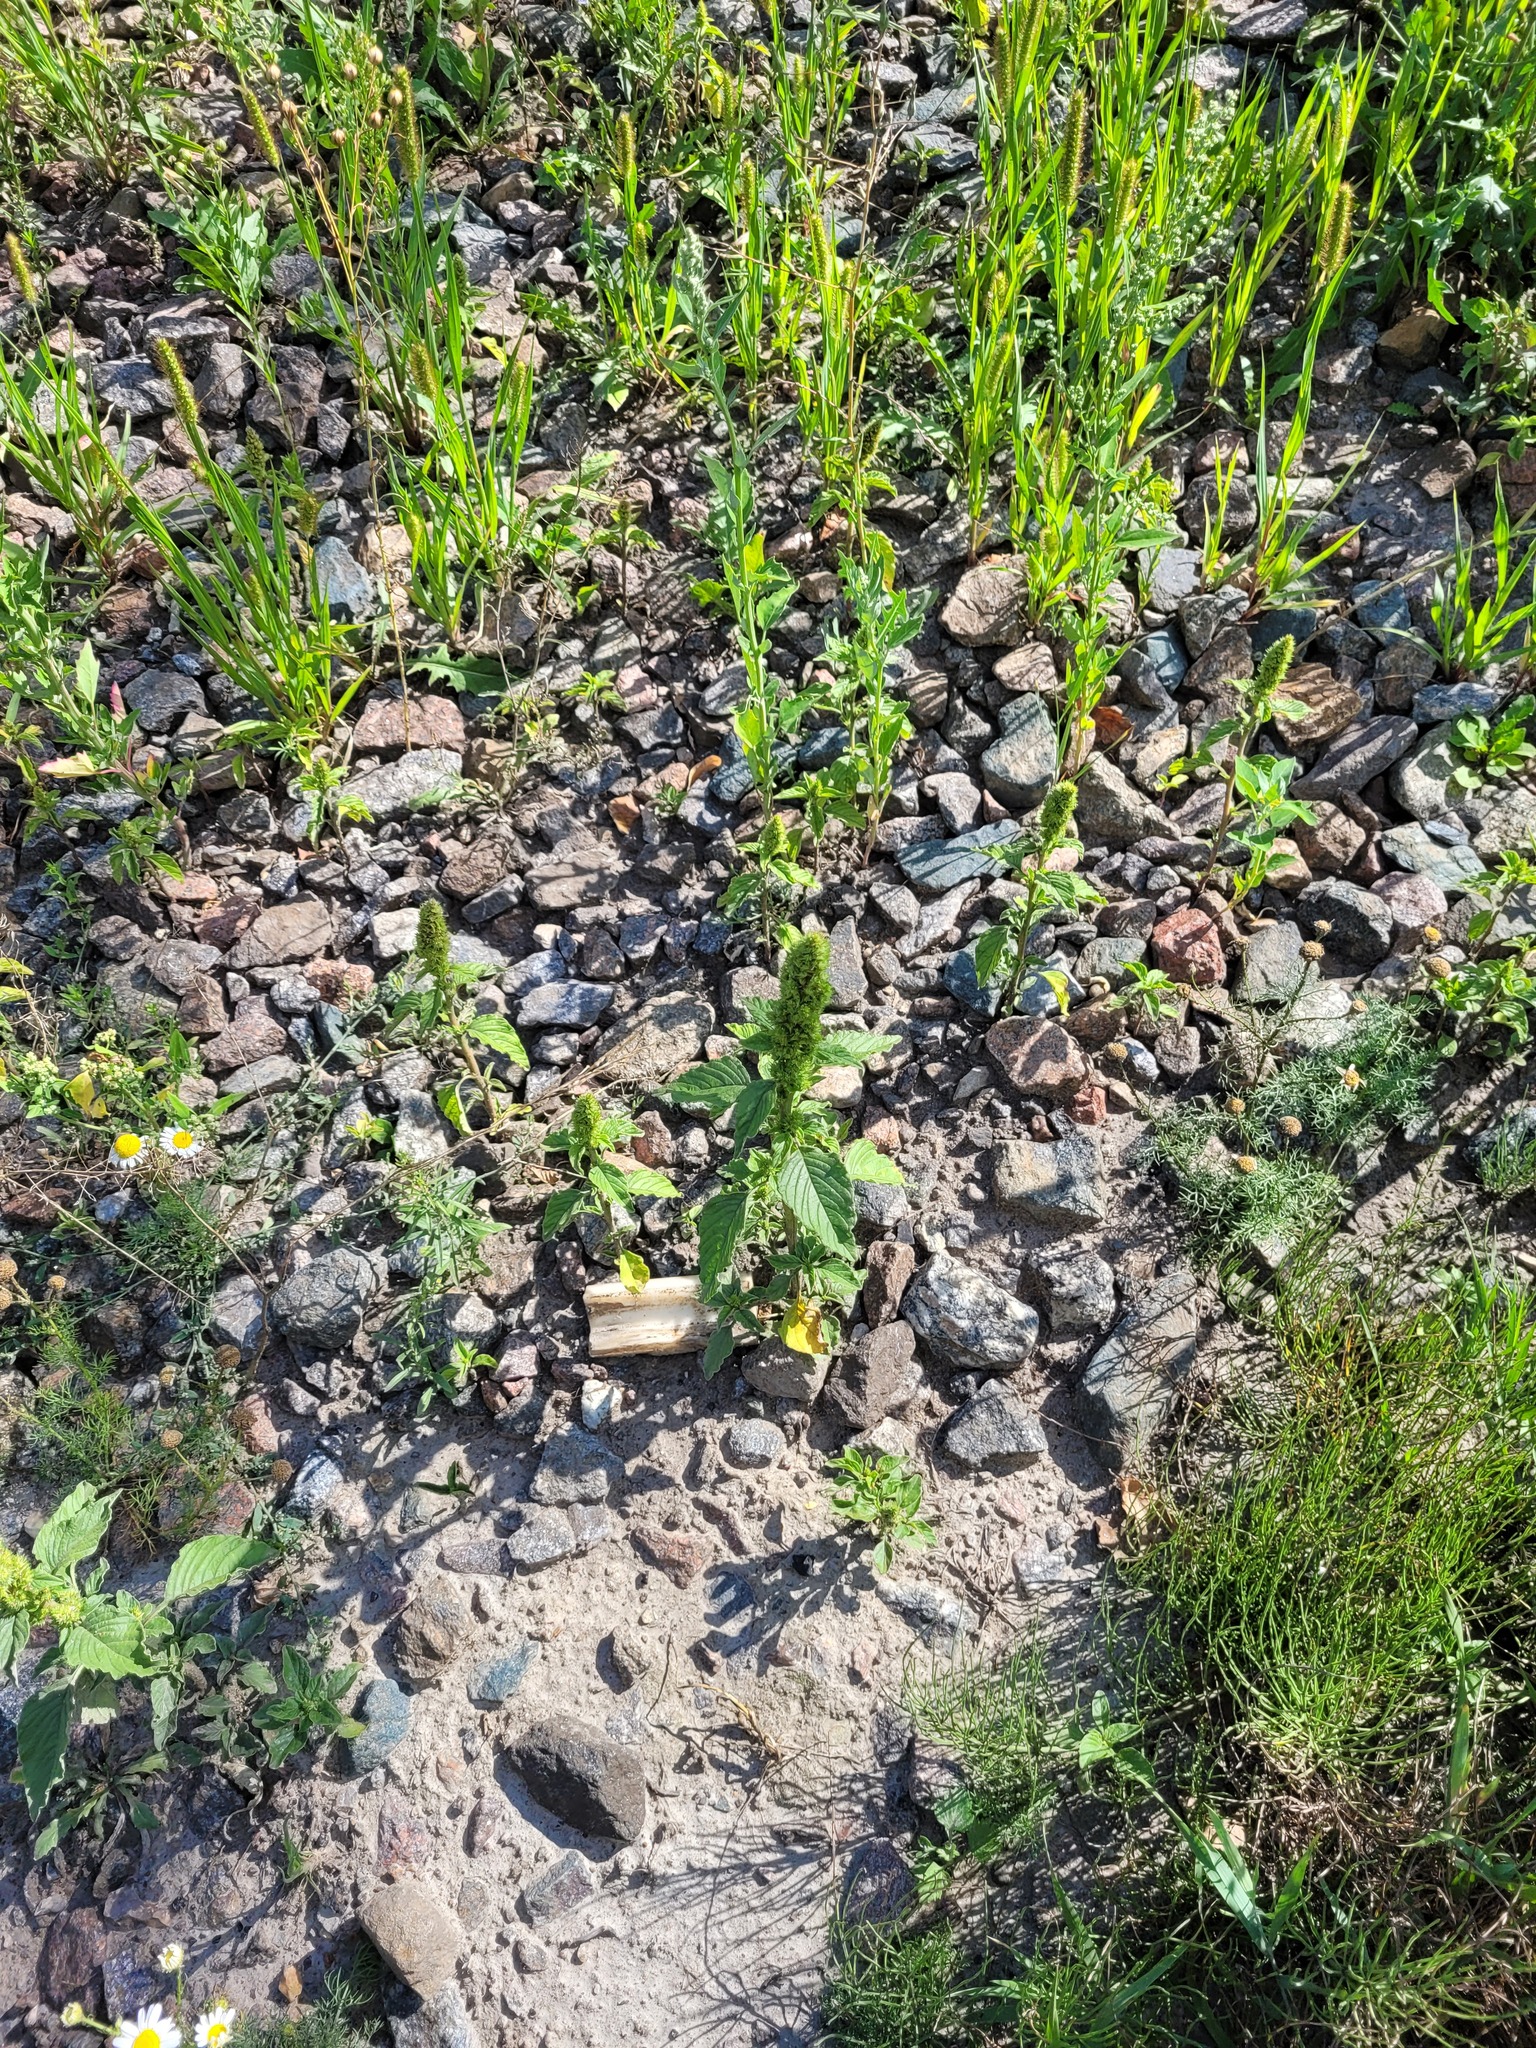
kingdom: Plantae
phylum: Tracheophyta
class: Magnoliopsida
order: Caryophyllales
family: Amaranthaceae
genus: Amaranthus
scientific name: Amaranthus retroflexus
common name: Redroot amaranth
